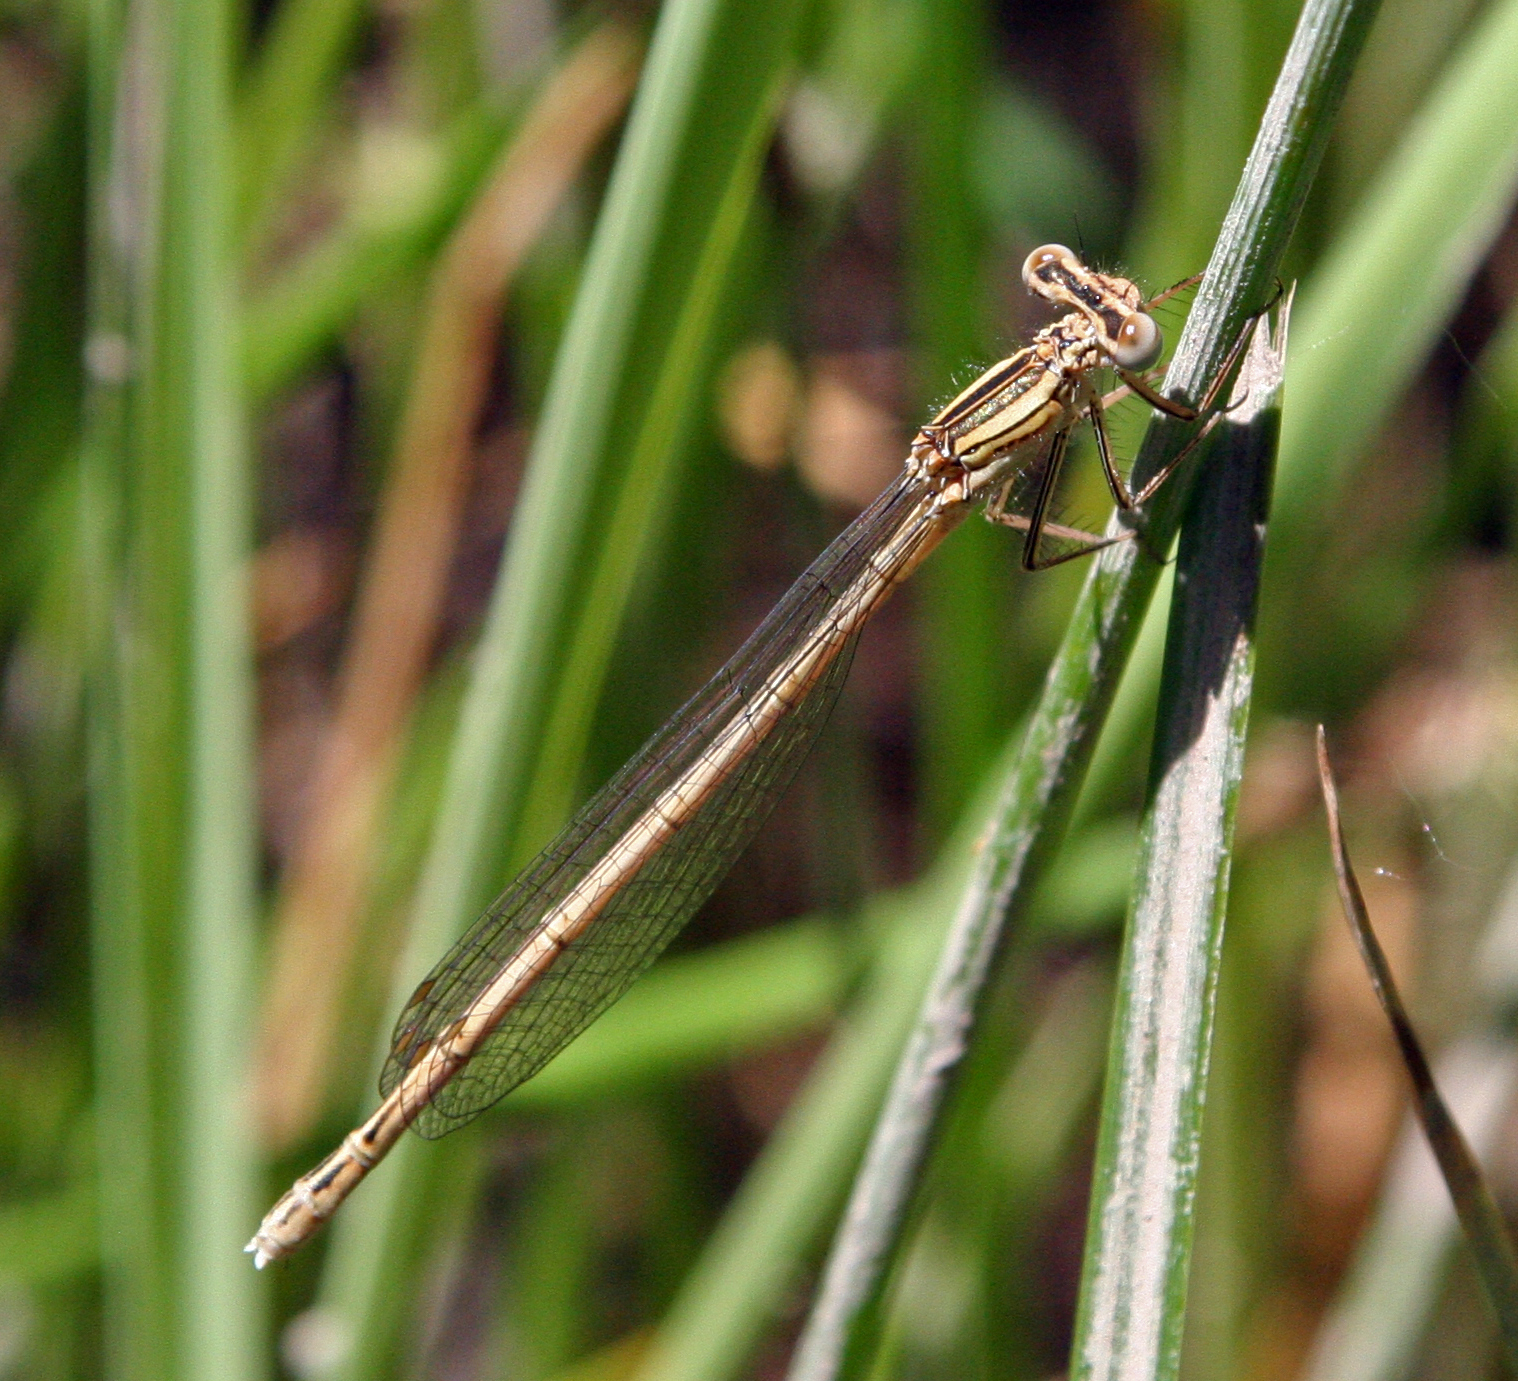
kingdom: Animalia
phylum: Arthropoda
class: Insecta
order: Odonata
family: Platycnemididae
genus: Platycnemis
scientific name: Platycnemis kervillei
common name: Kerville's featherleg
